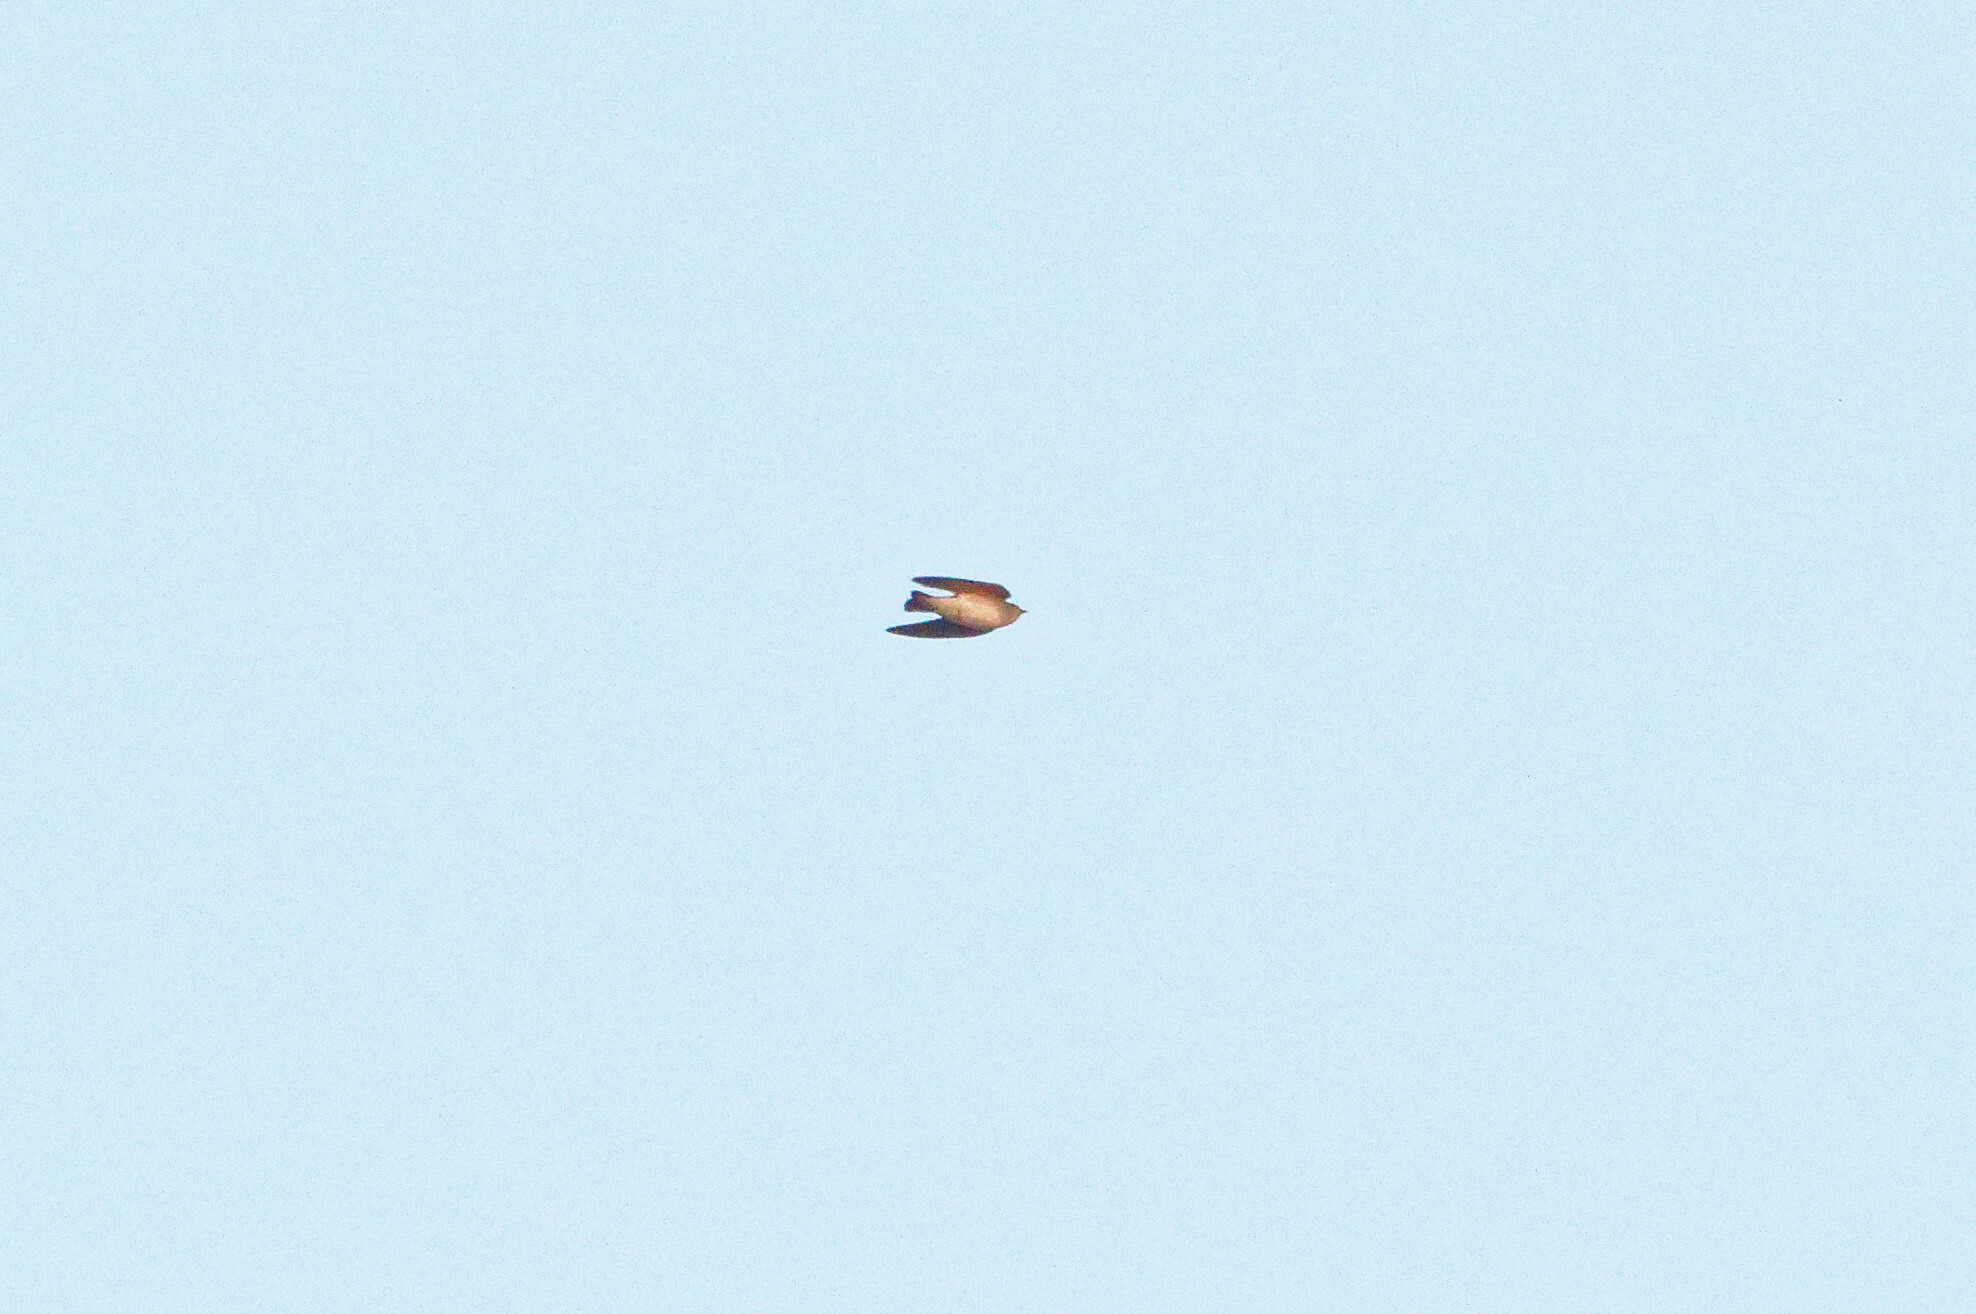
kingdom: Animalia
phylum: Chordata
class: Aves
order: Passeriformes
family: Hirundinidae
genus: Stelgidopteryx
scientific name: Stelgidopteryx serripennis
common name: Northern rough-winged swallow
